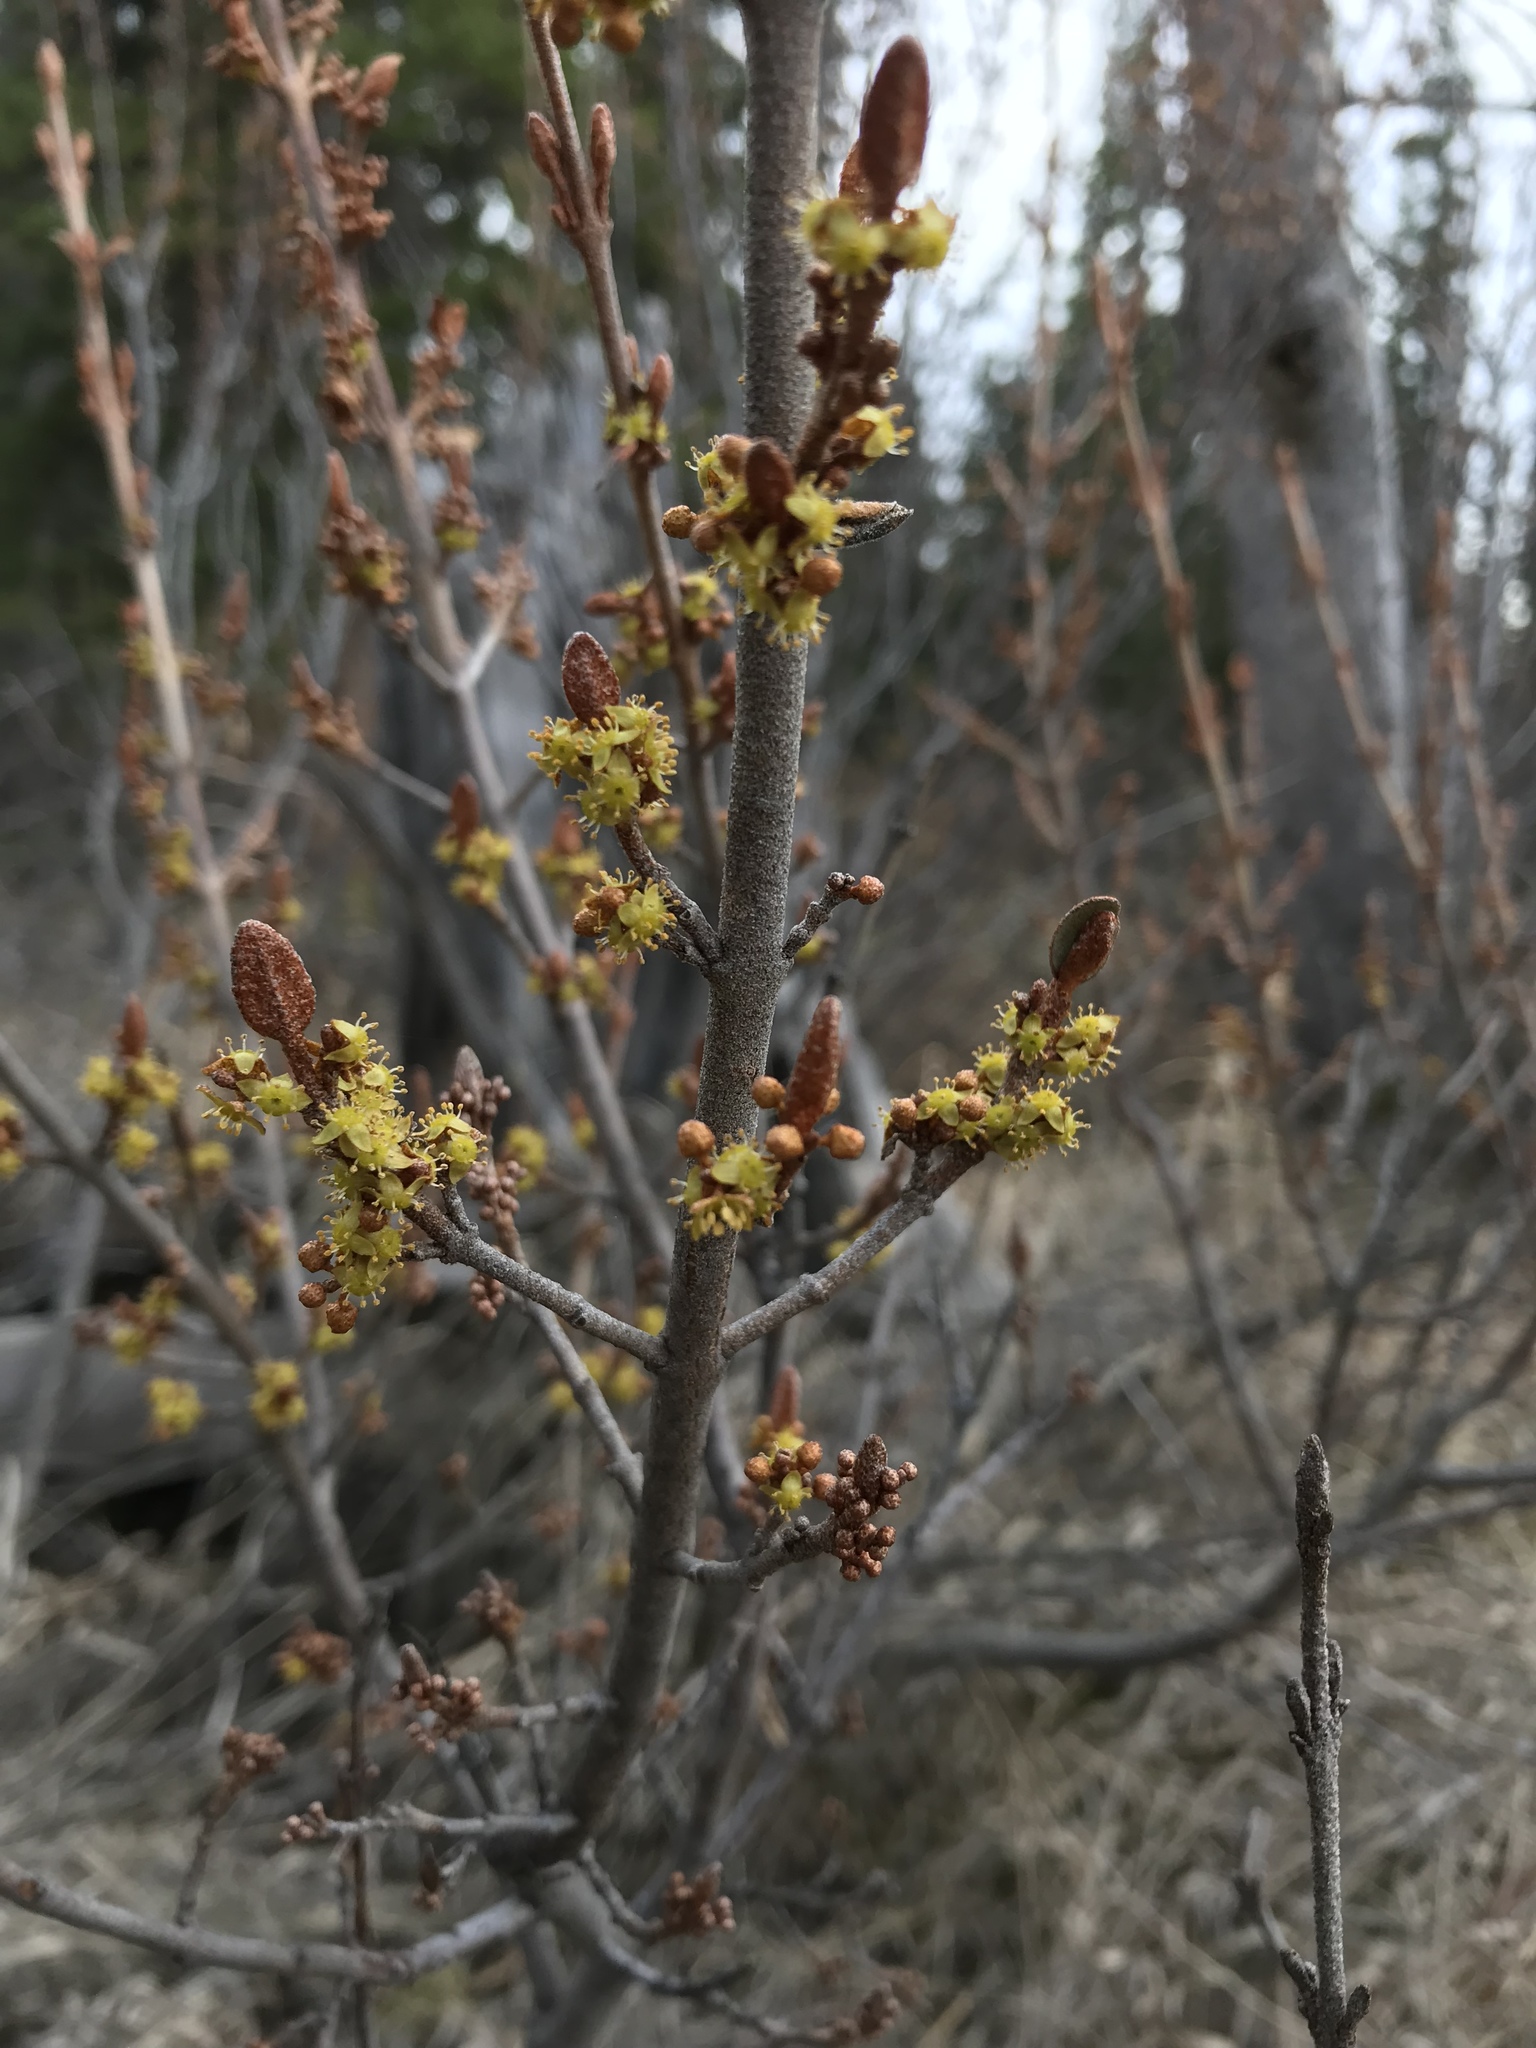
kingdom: Plantae
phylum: Tracheophyta
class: Magnoliopsida
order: Rosales
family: Elaeagnaceae
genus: Shepherdia
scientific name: Shepherdia canadensis
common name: Soapberry
